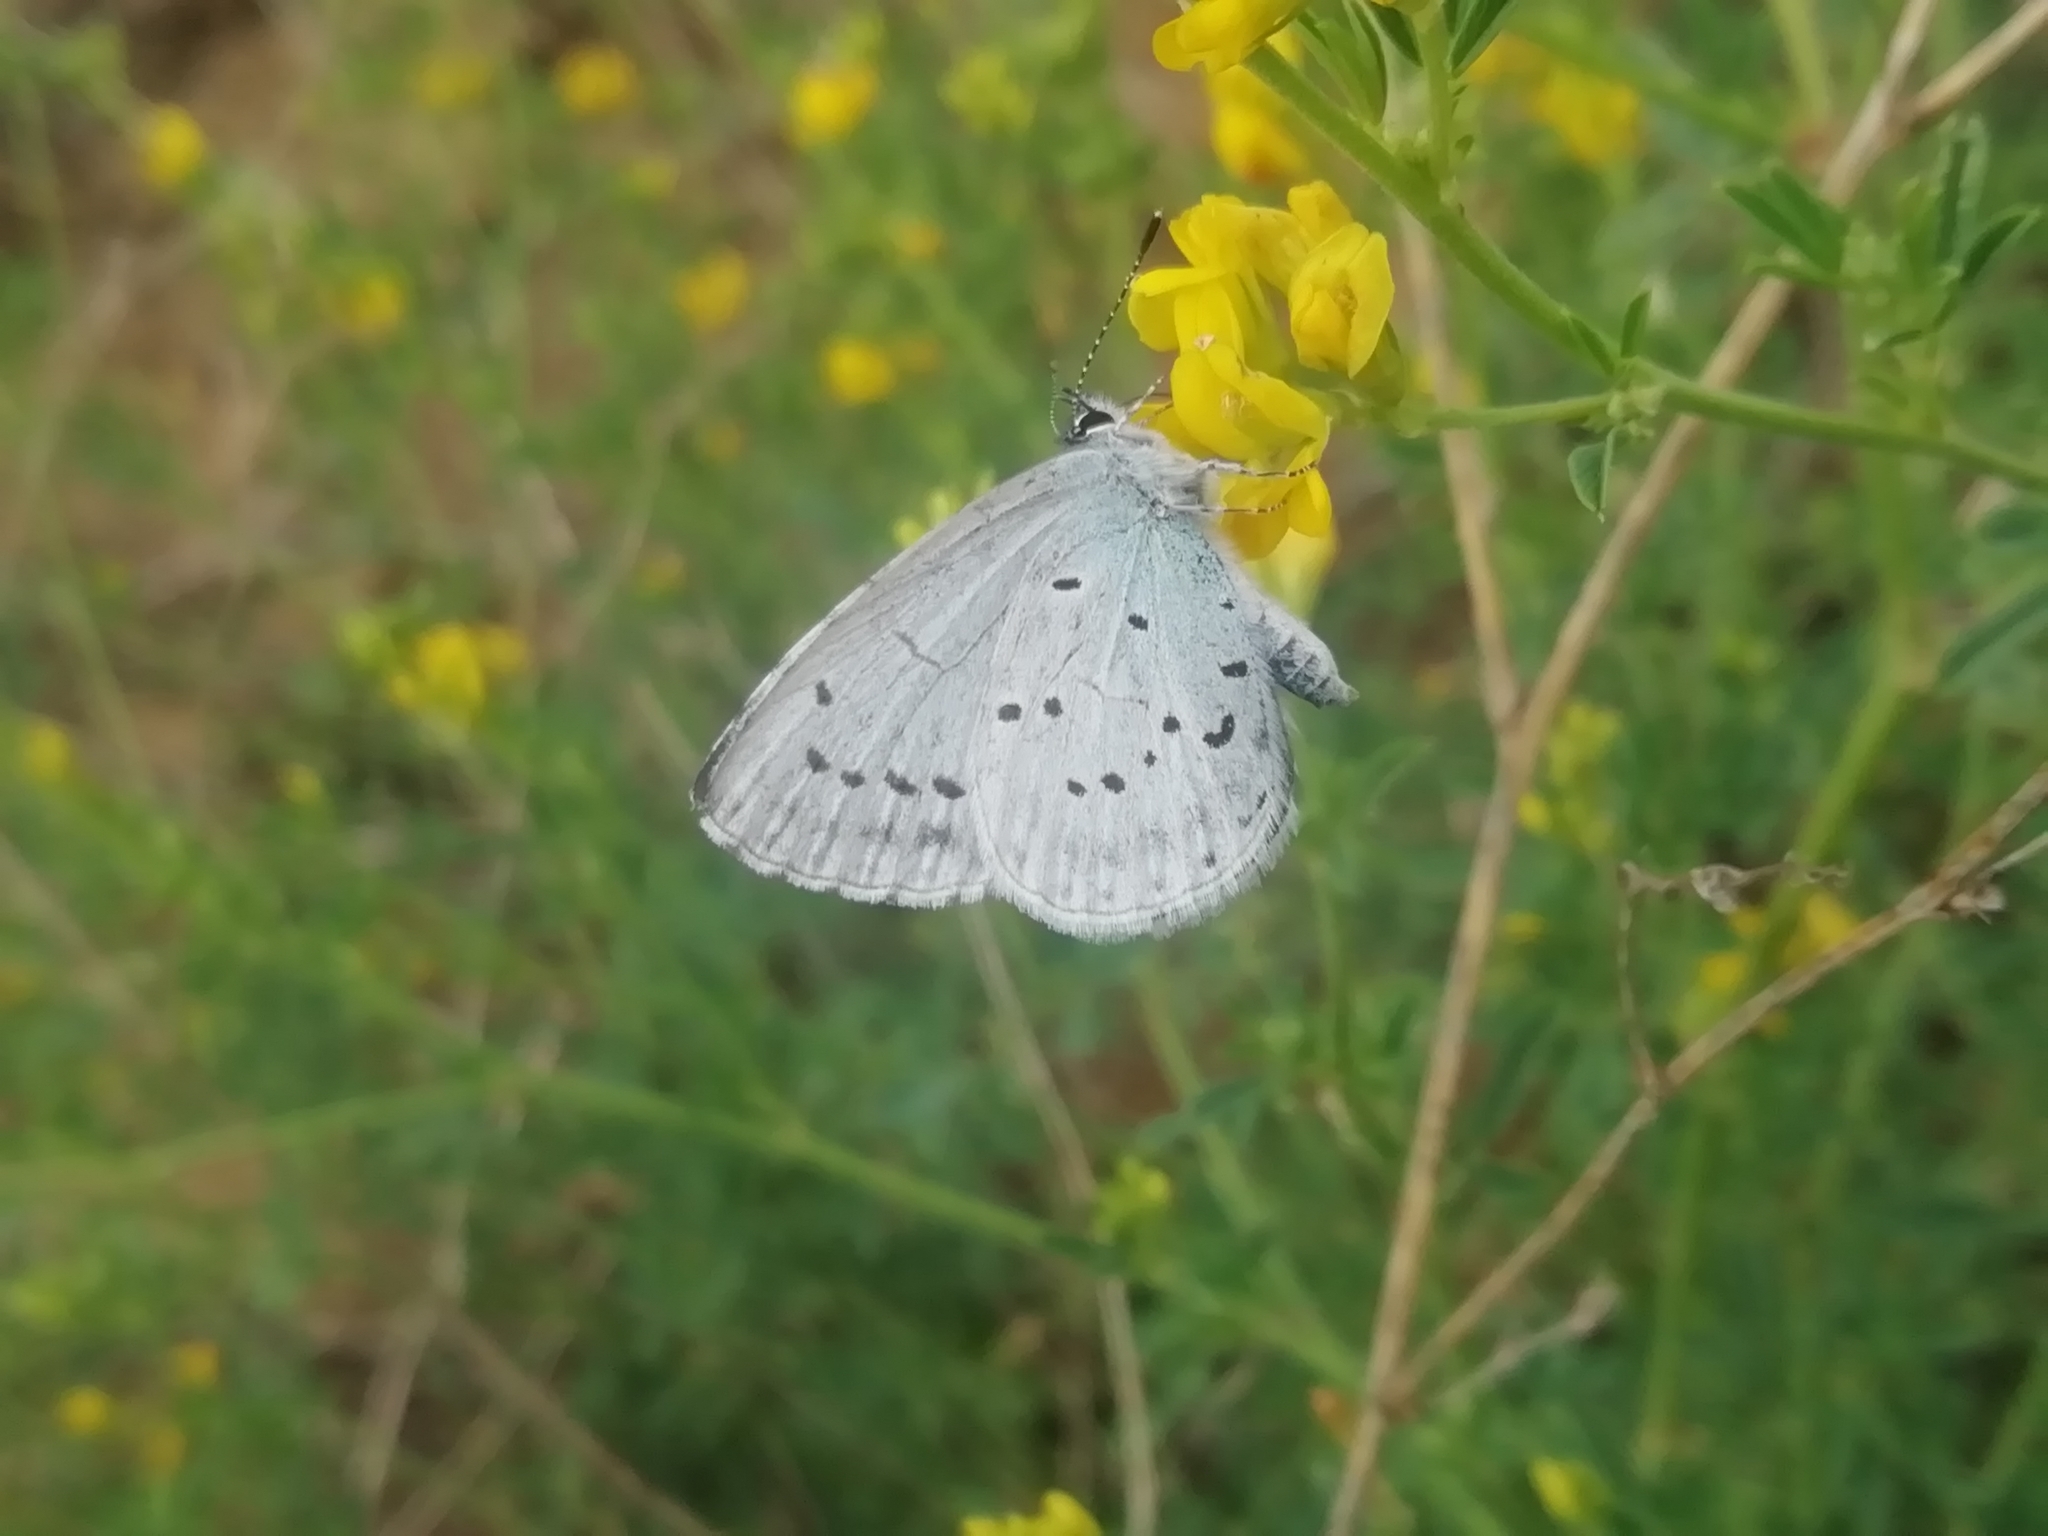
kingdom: Animalia
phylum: Arthropoda
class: Insecta
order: Lepidoptera
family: Lycaenidae
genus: Celastrina
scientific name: Celastrina argiolus
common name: Holly blue
